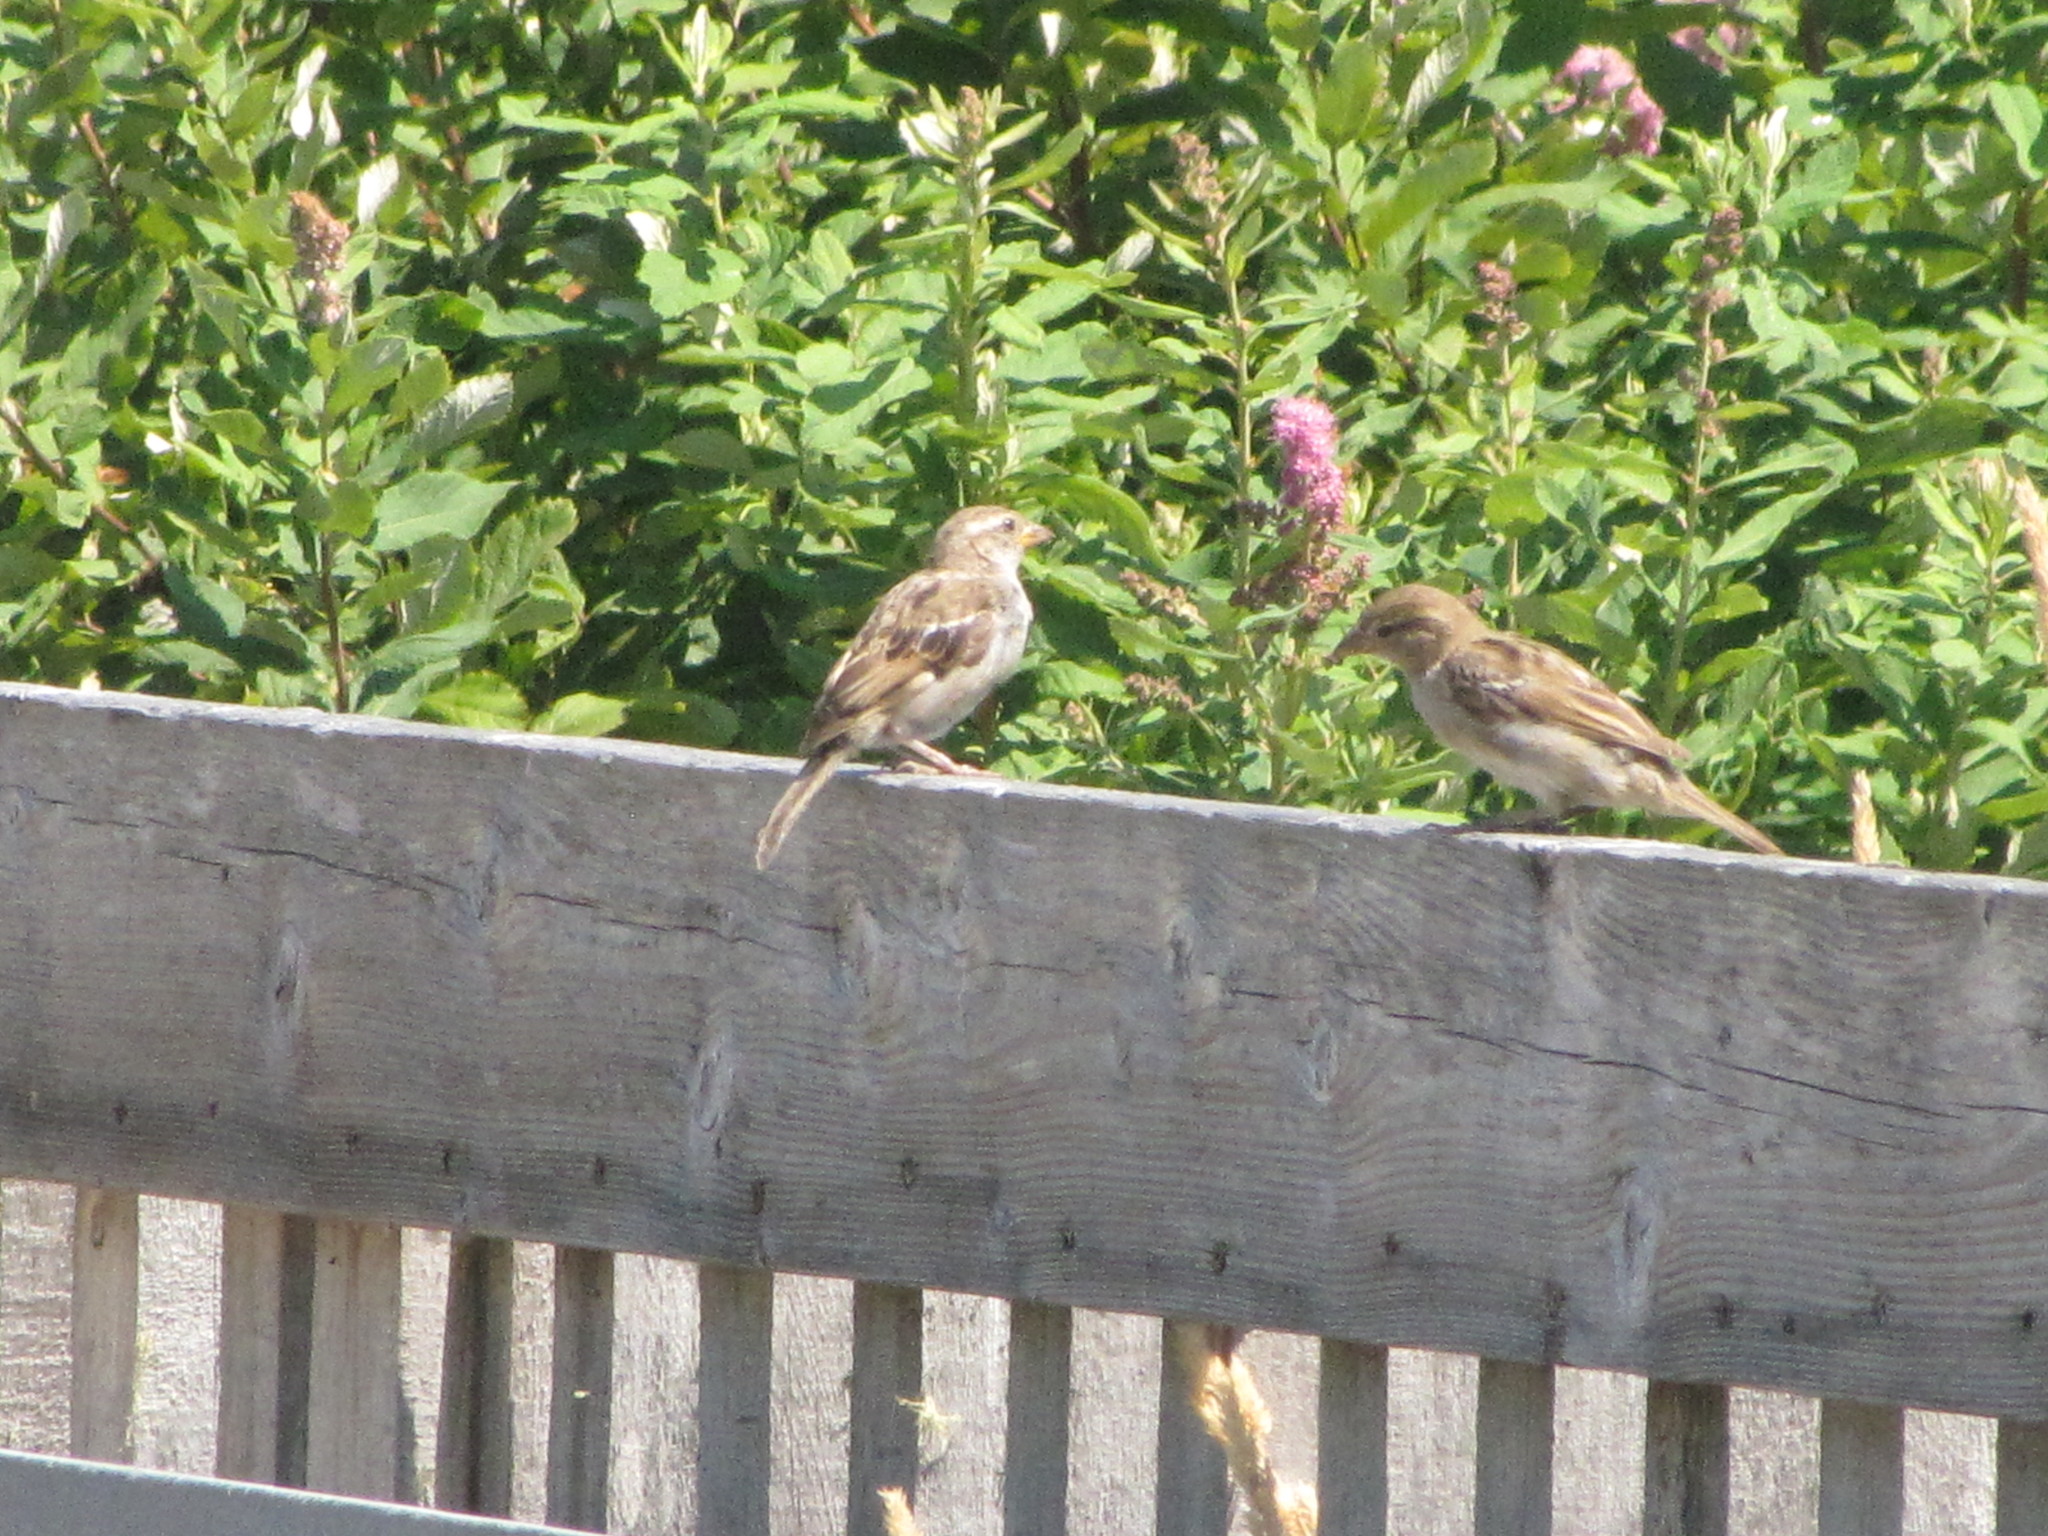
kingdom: Animalia
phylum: Chordata
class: Aves
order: Passeriformes
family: Passeridae
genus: Passer
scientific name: Passer domesticus
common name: House sparrow
